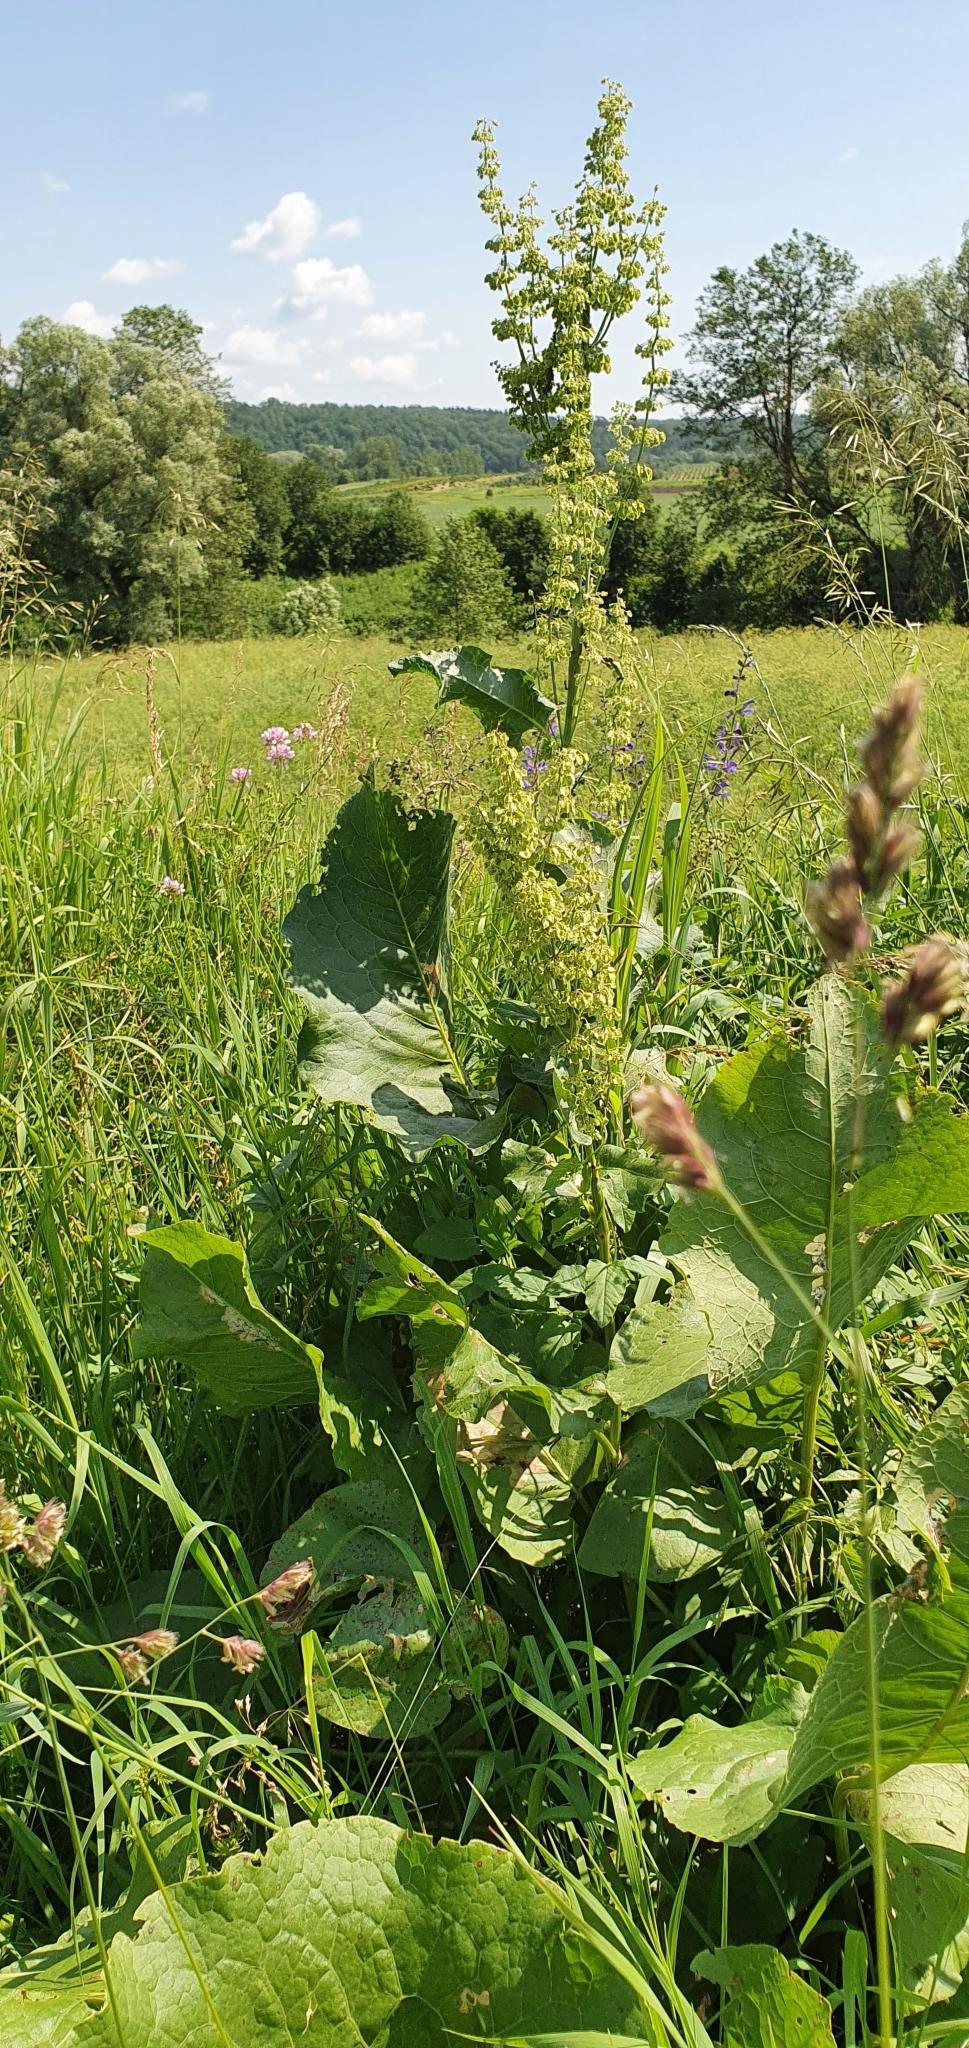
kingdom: Plantae
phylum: Tracheophyta
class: Magnoliopsida
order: Caryophyllales
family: Polygonaceae
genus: Rumex
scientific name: Rumex confertus
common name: Russian dock
